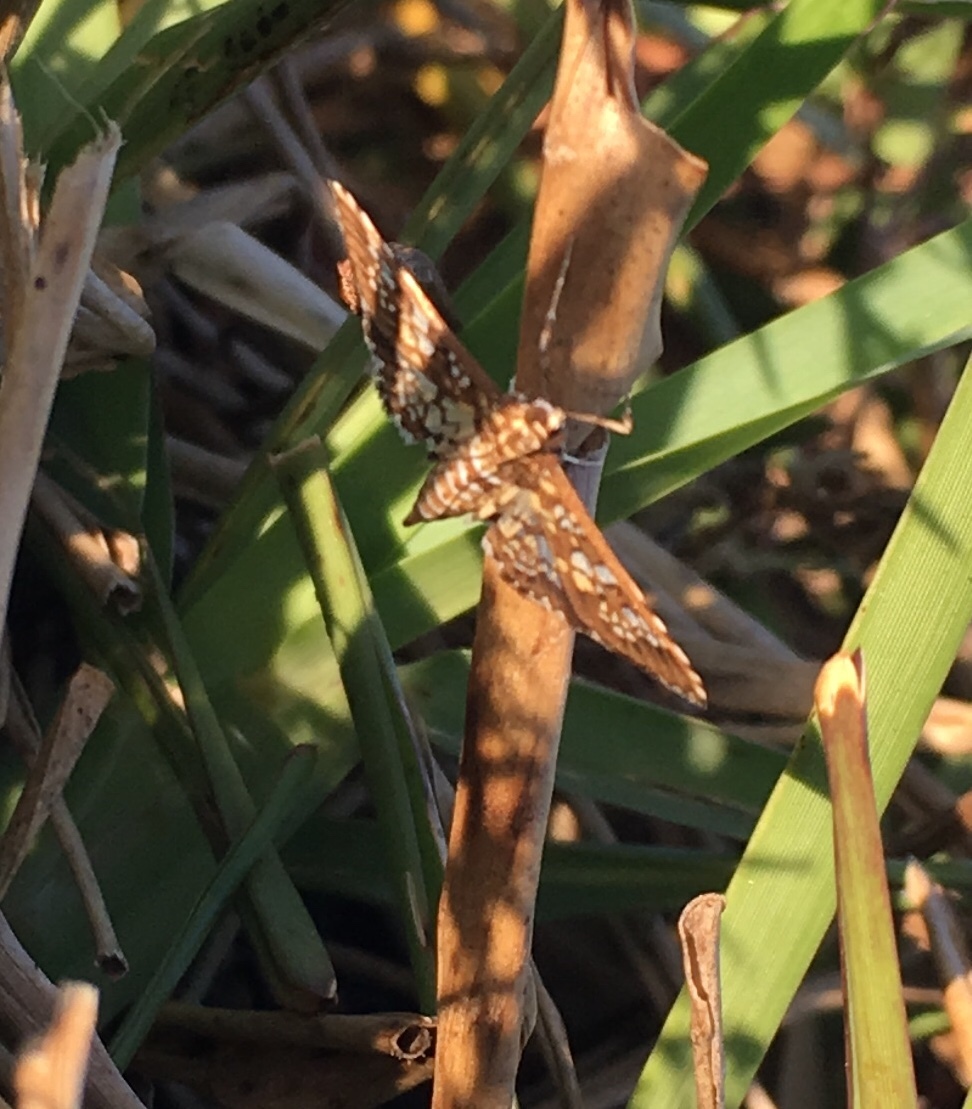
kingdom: Animalia
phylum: Arthropoda
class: Insecta
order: Lepidoptera
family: Crambidae
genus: Samea
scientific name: Samea ecclesialis
